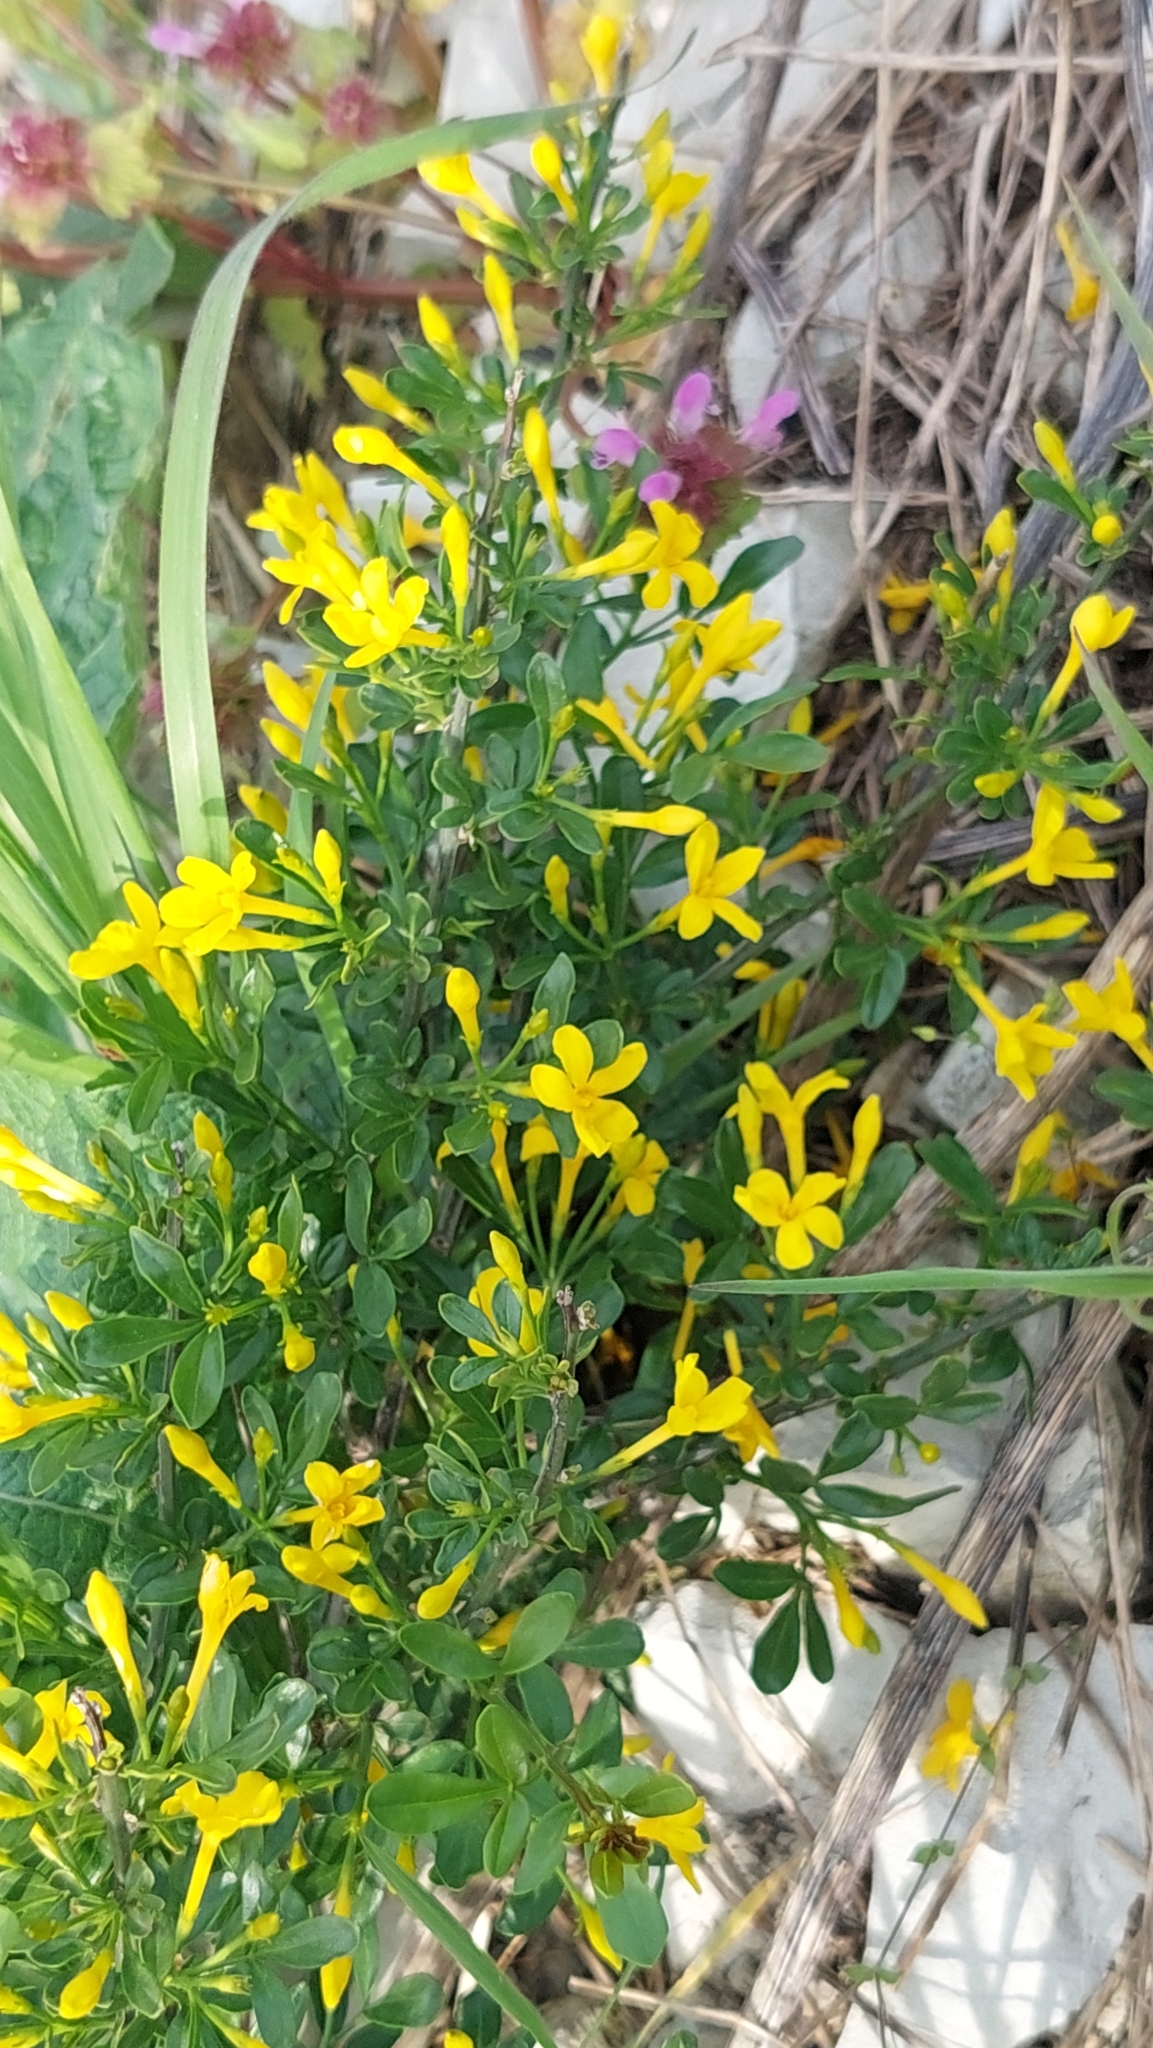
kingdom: Plantae
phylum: Tracheophyta
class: Magnoliopsida
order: Lamiales
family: Oleaceae
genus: Chrysojasminum
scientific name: Chrysojasminum fruticans
